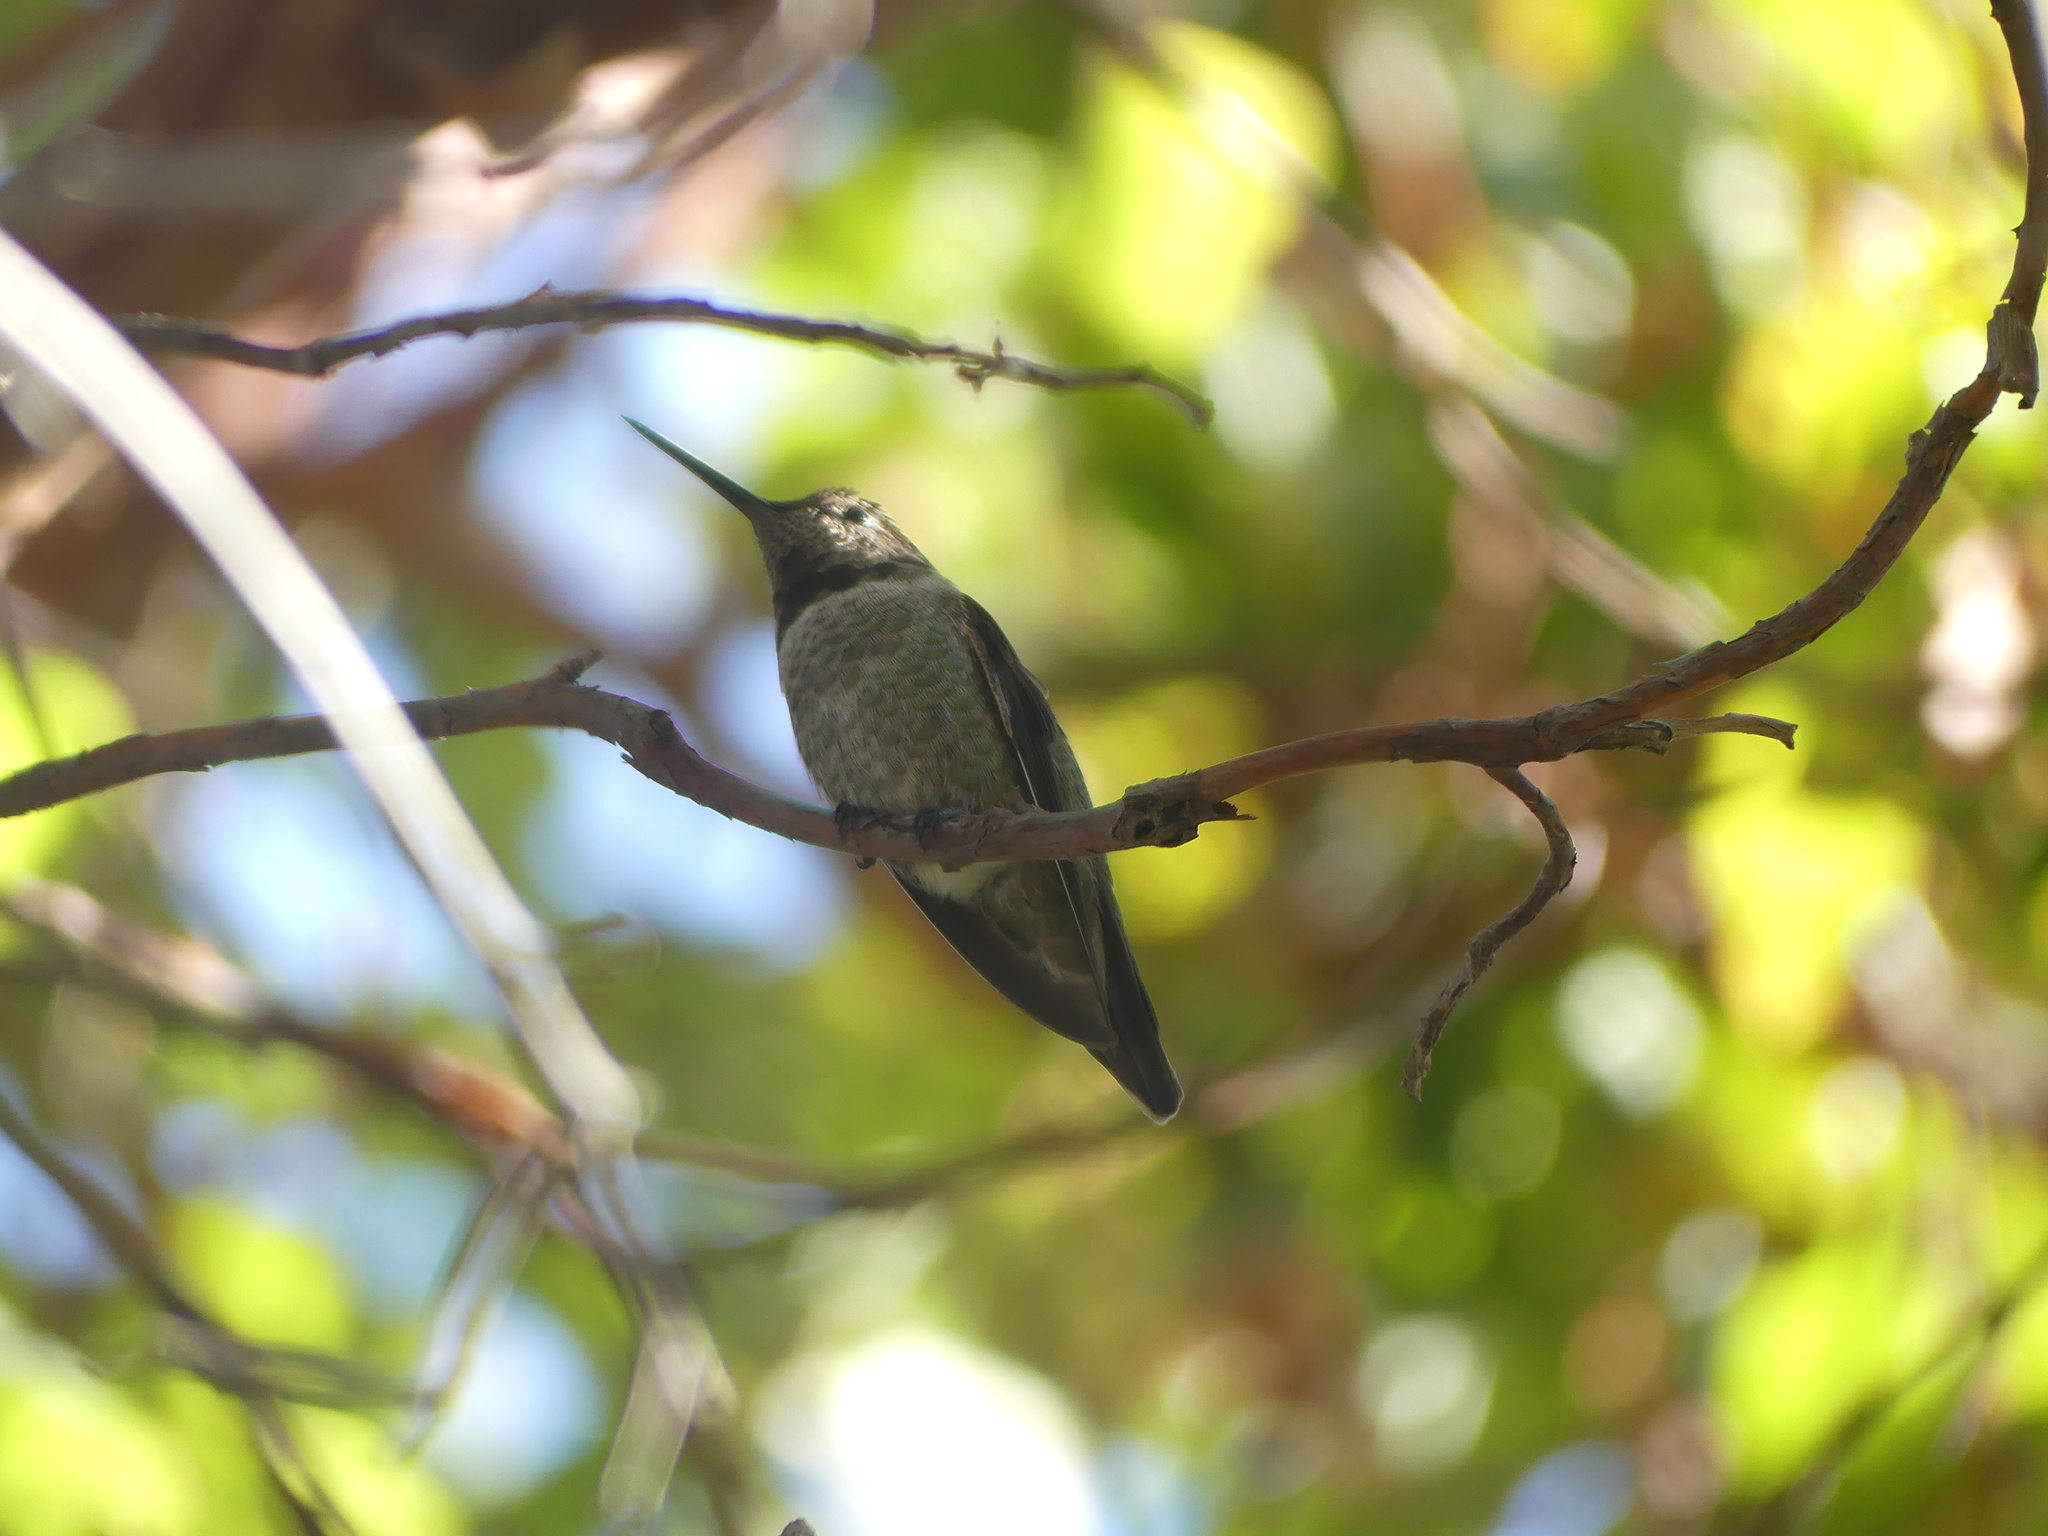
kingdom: Animalia
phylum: Chordata
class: Aves
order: Apodiformes
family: Trochilidae
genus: Calypte
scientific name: Calypte anna
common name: Anna's hummingbird
